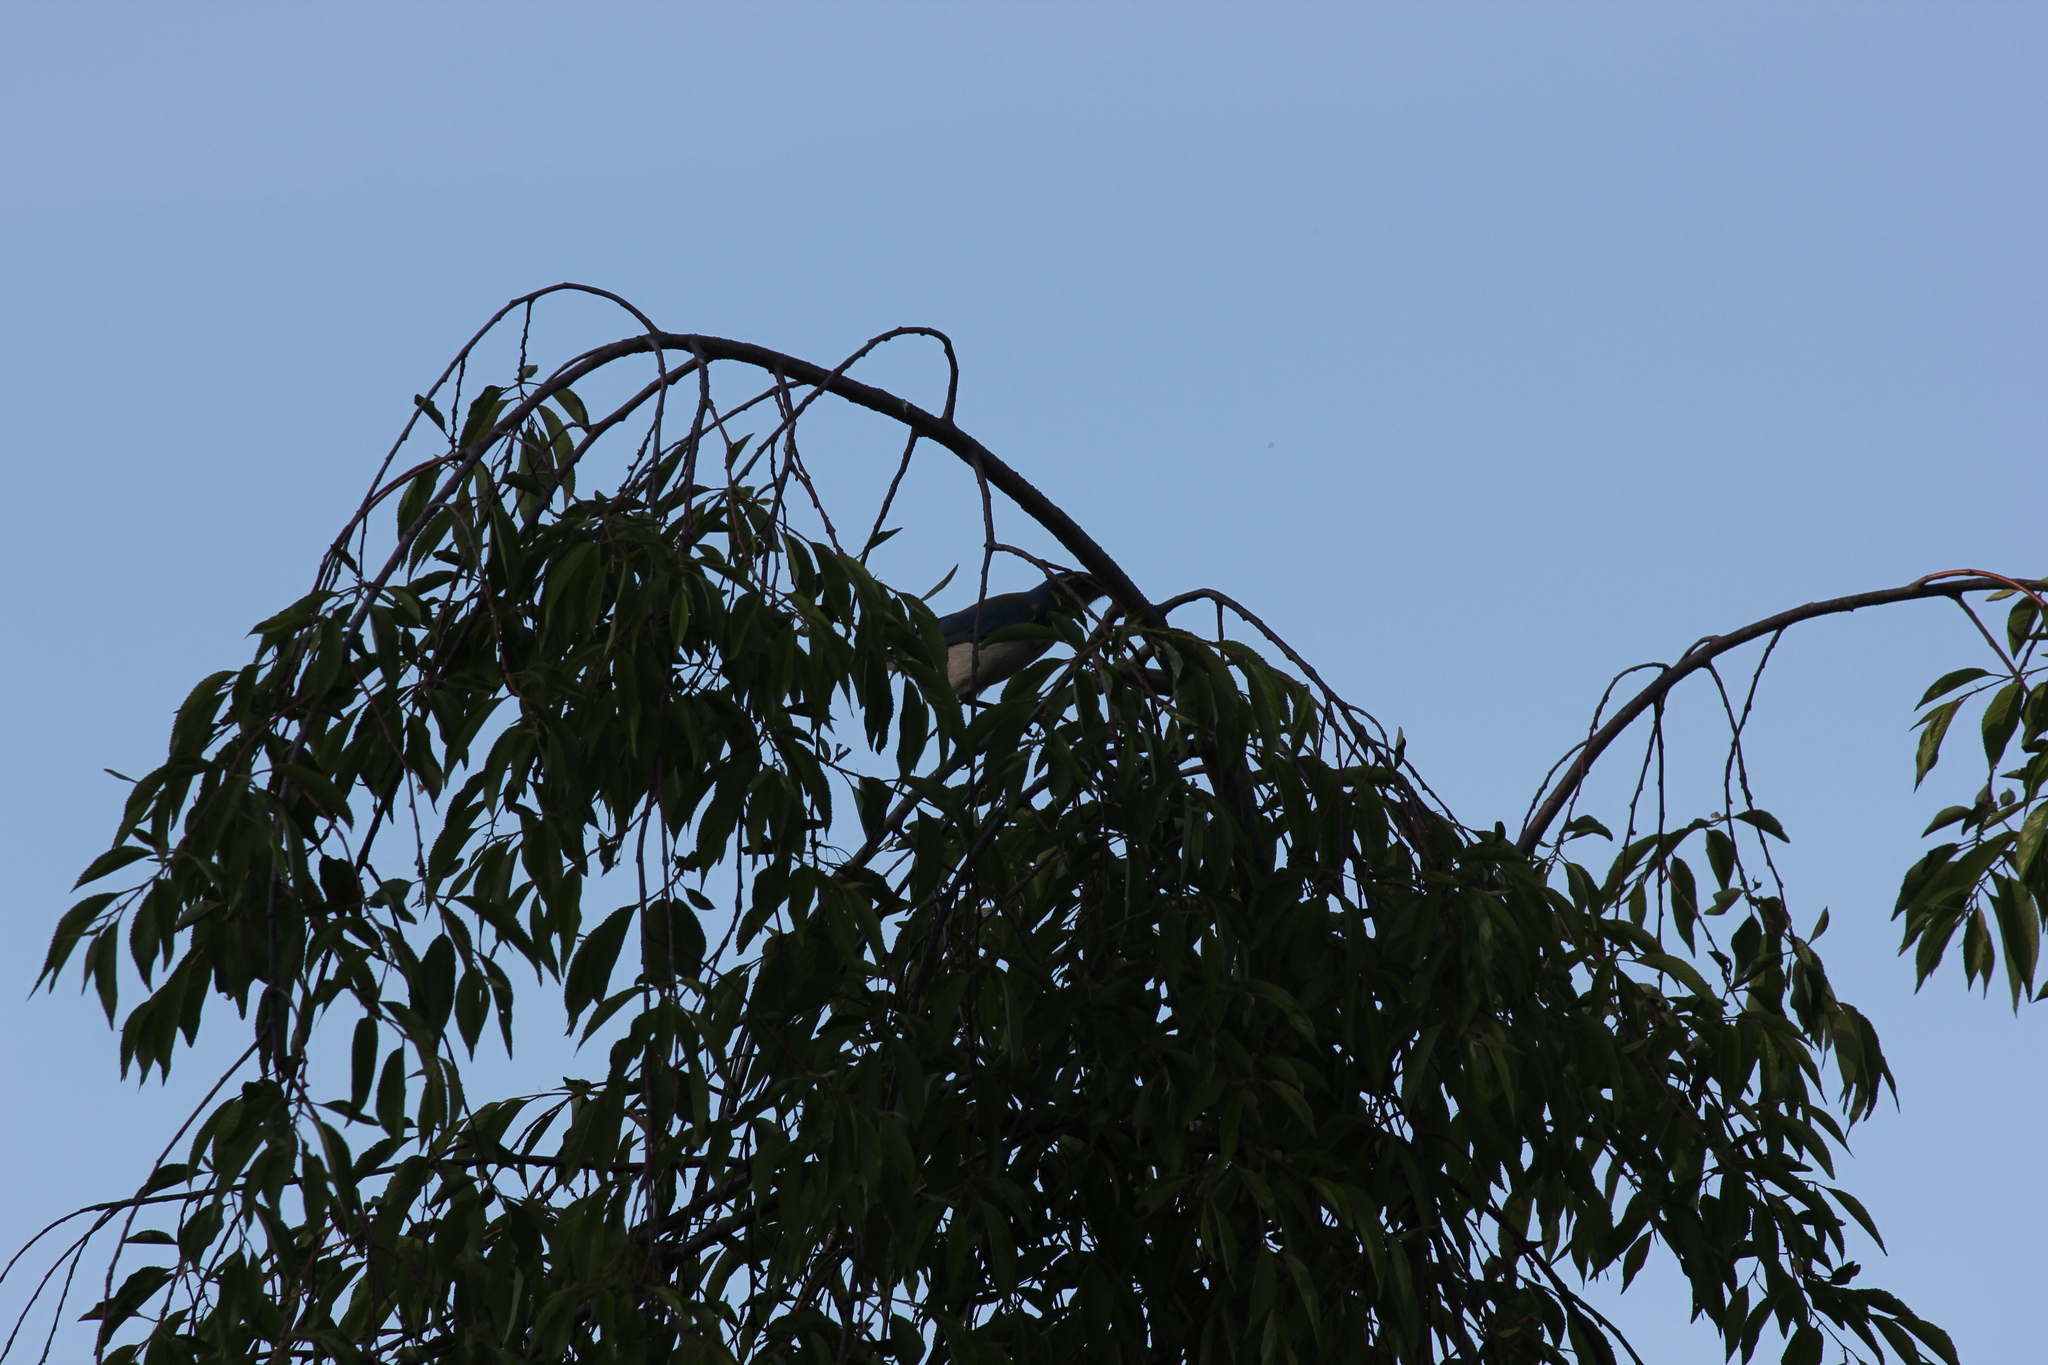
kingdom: Animalia
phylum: Chordata
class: Aves
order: Passeriformes
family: Corvidae
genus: Aphelocoma
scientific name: Aphelocoma californica
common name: California scrub-jay
